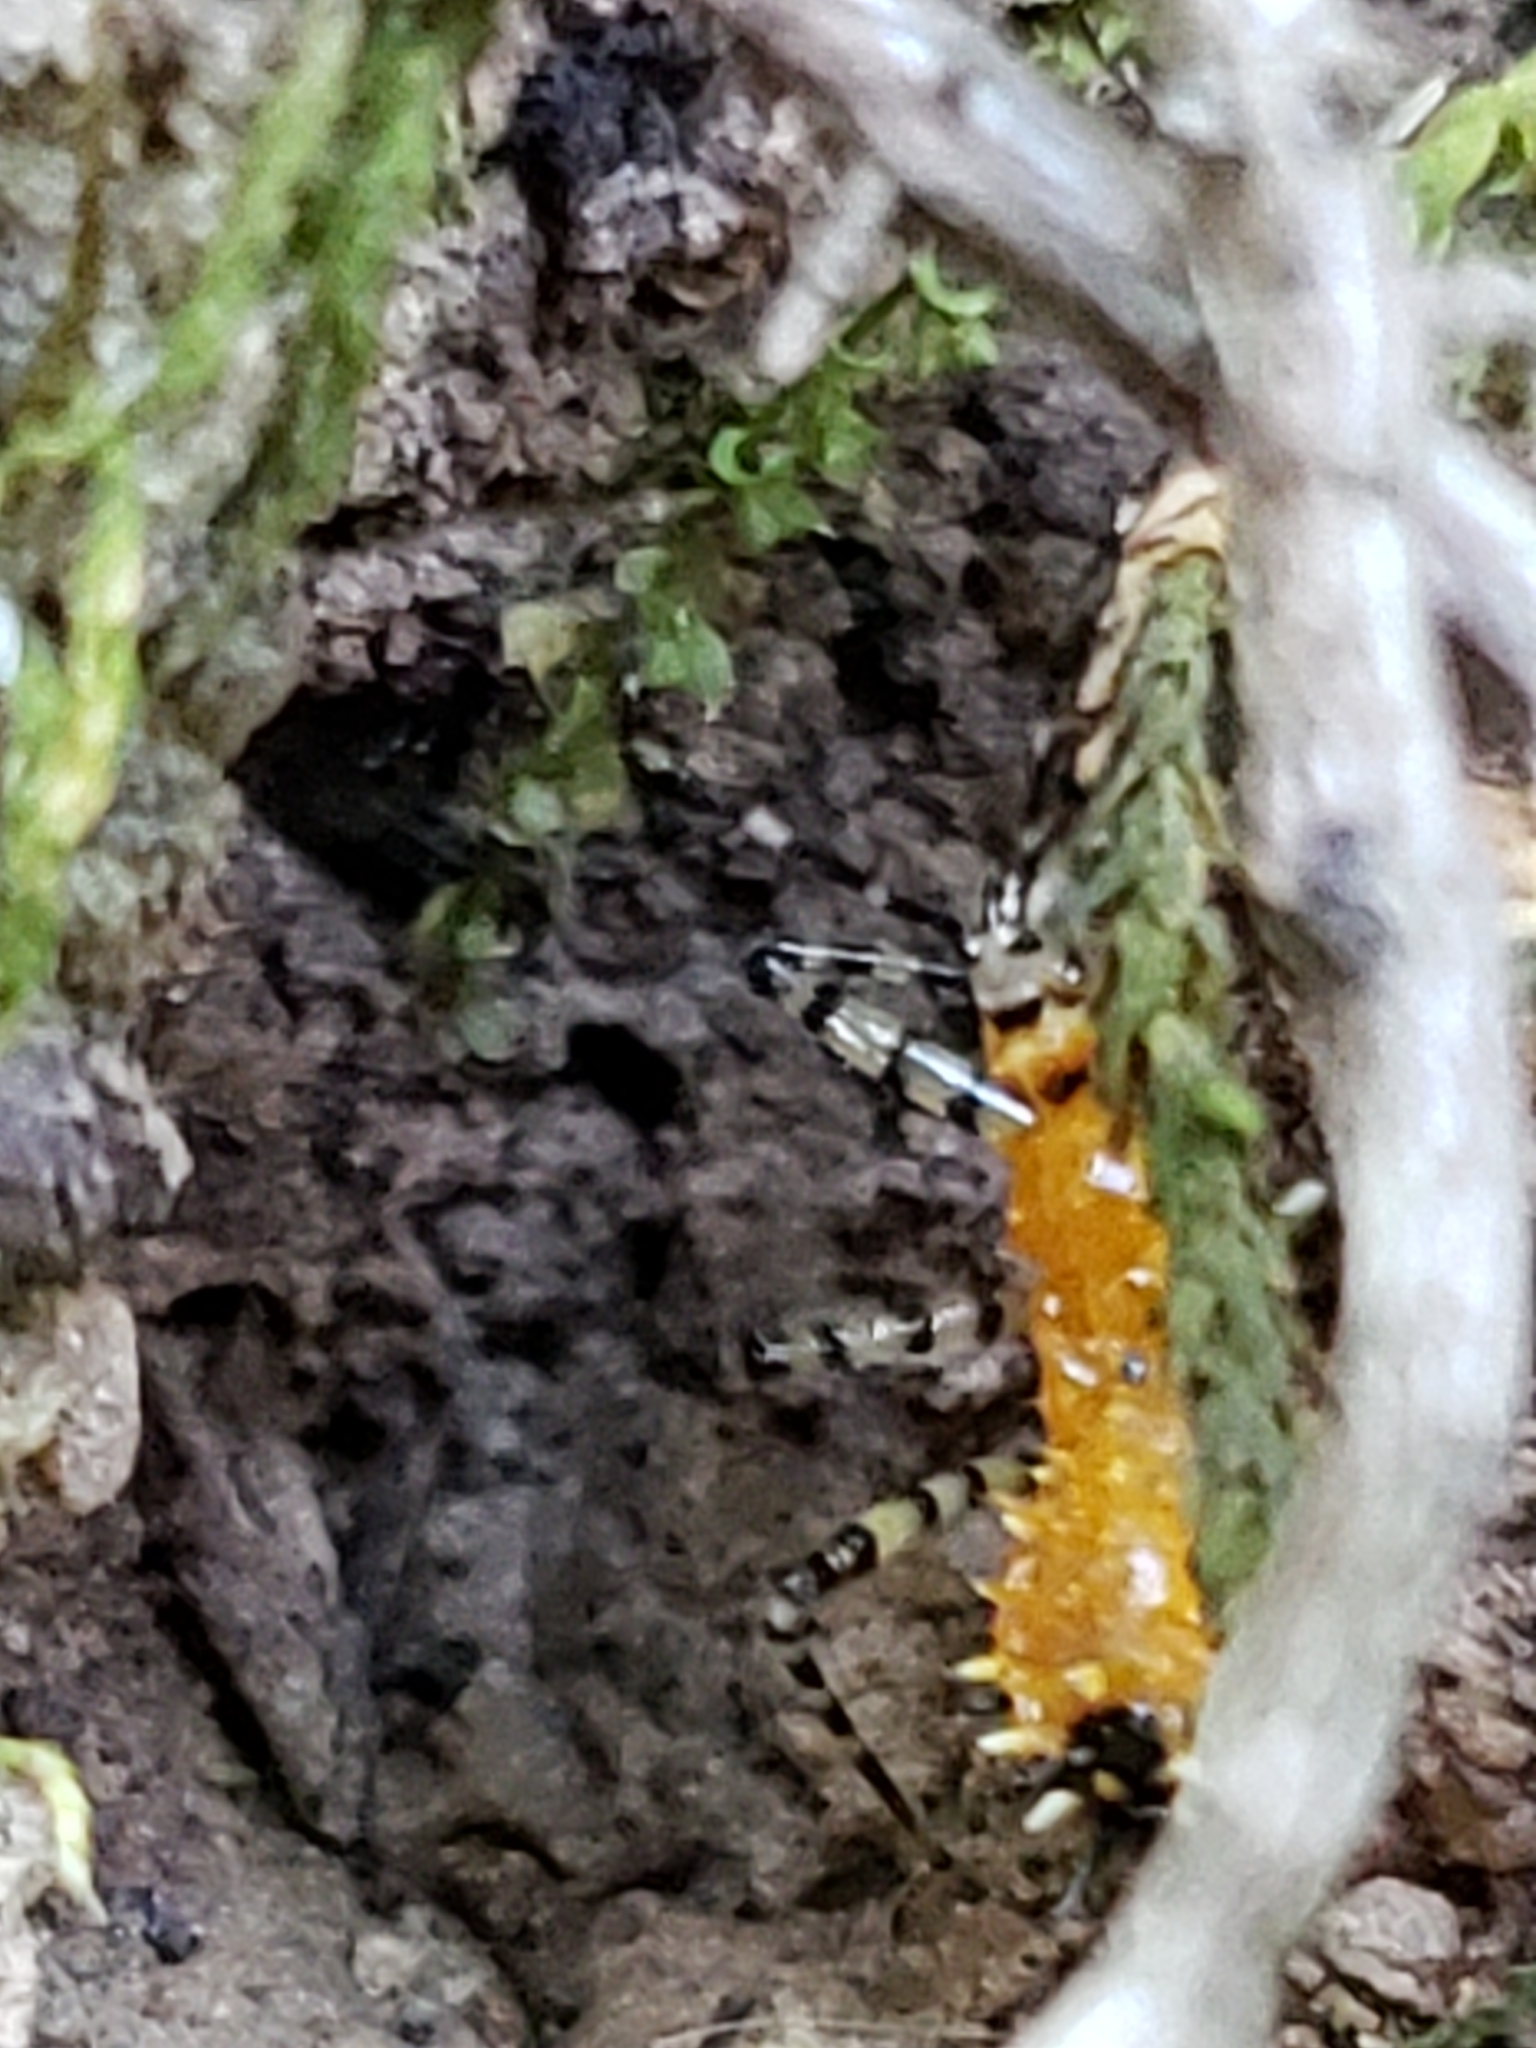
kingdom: Animalia
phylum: Arthropoda
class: Insecta
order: Hemiptera
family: Reduviidae
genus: Pselliopus
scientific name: Pselliopus barberi
